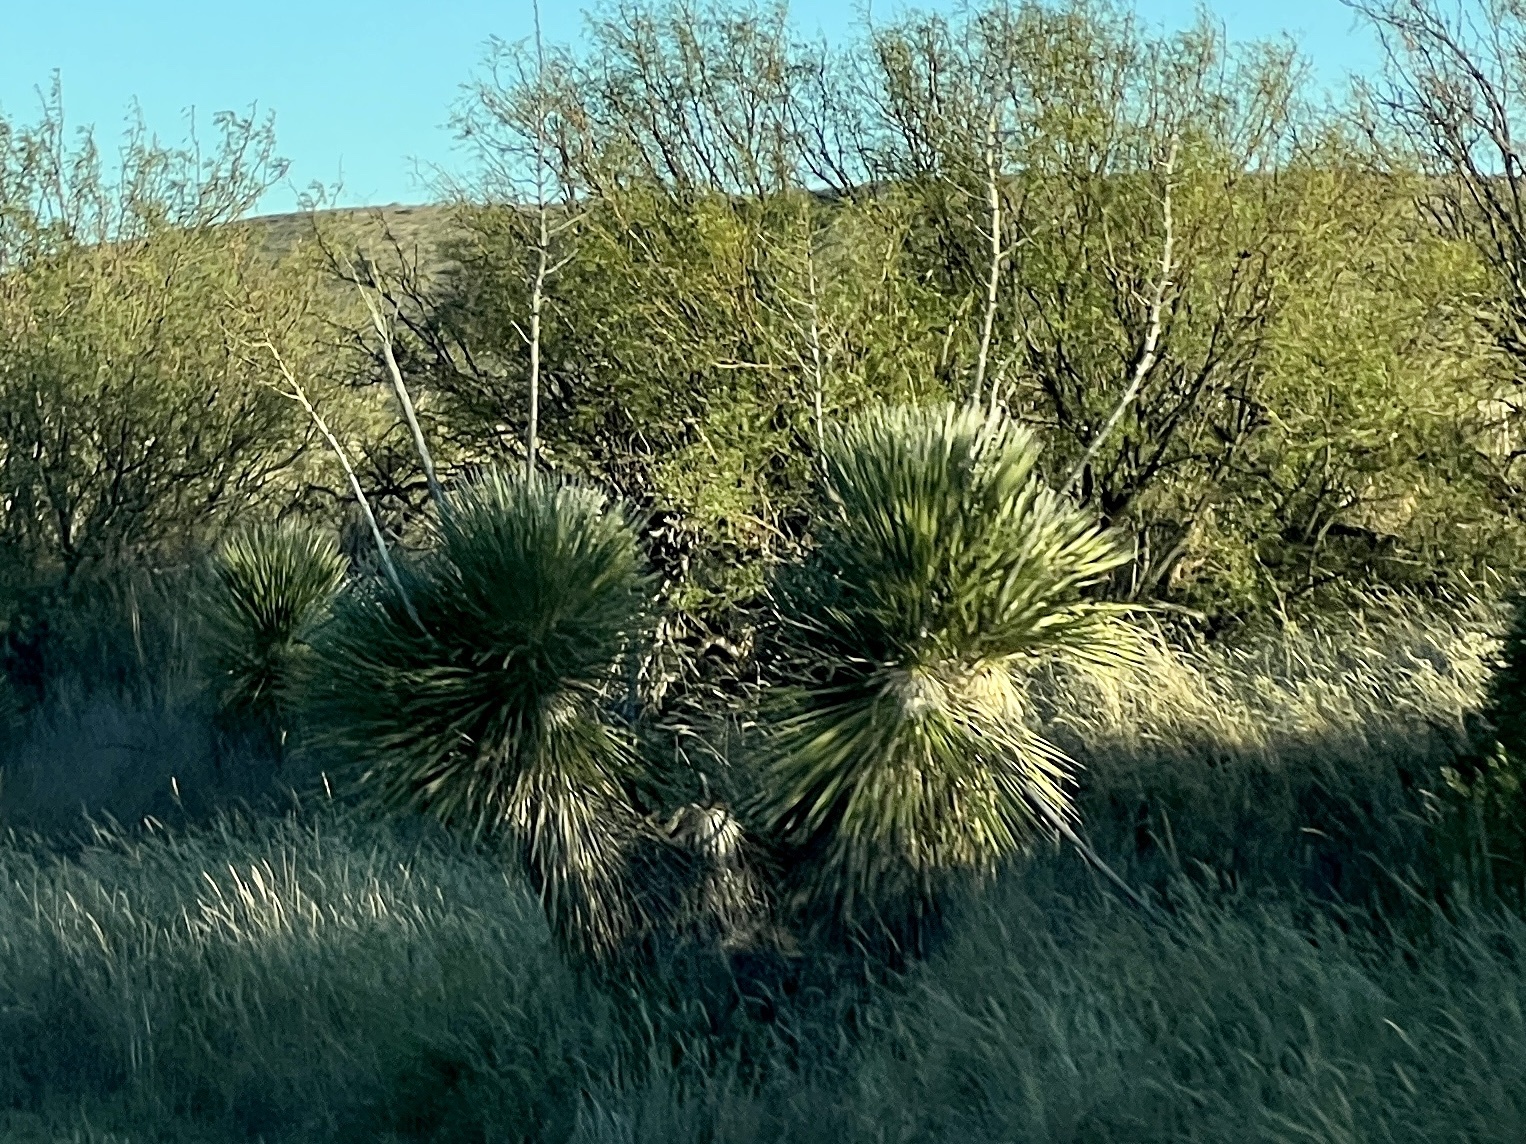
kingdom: Plantae
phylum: Tracheophyta
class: Liliopsida
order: Asparagales
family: Asparagaceae
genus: Yucca
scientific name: Yucca elata
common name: Palmella
